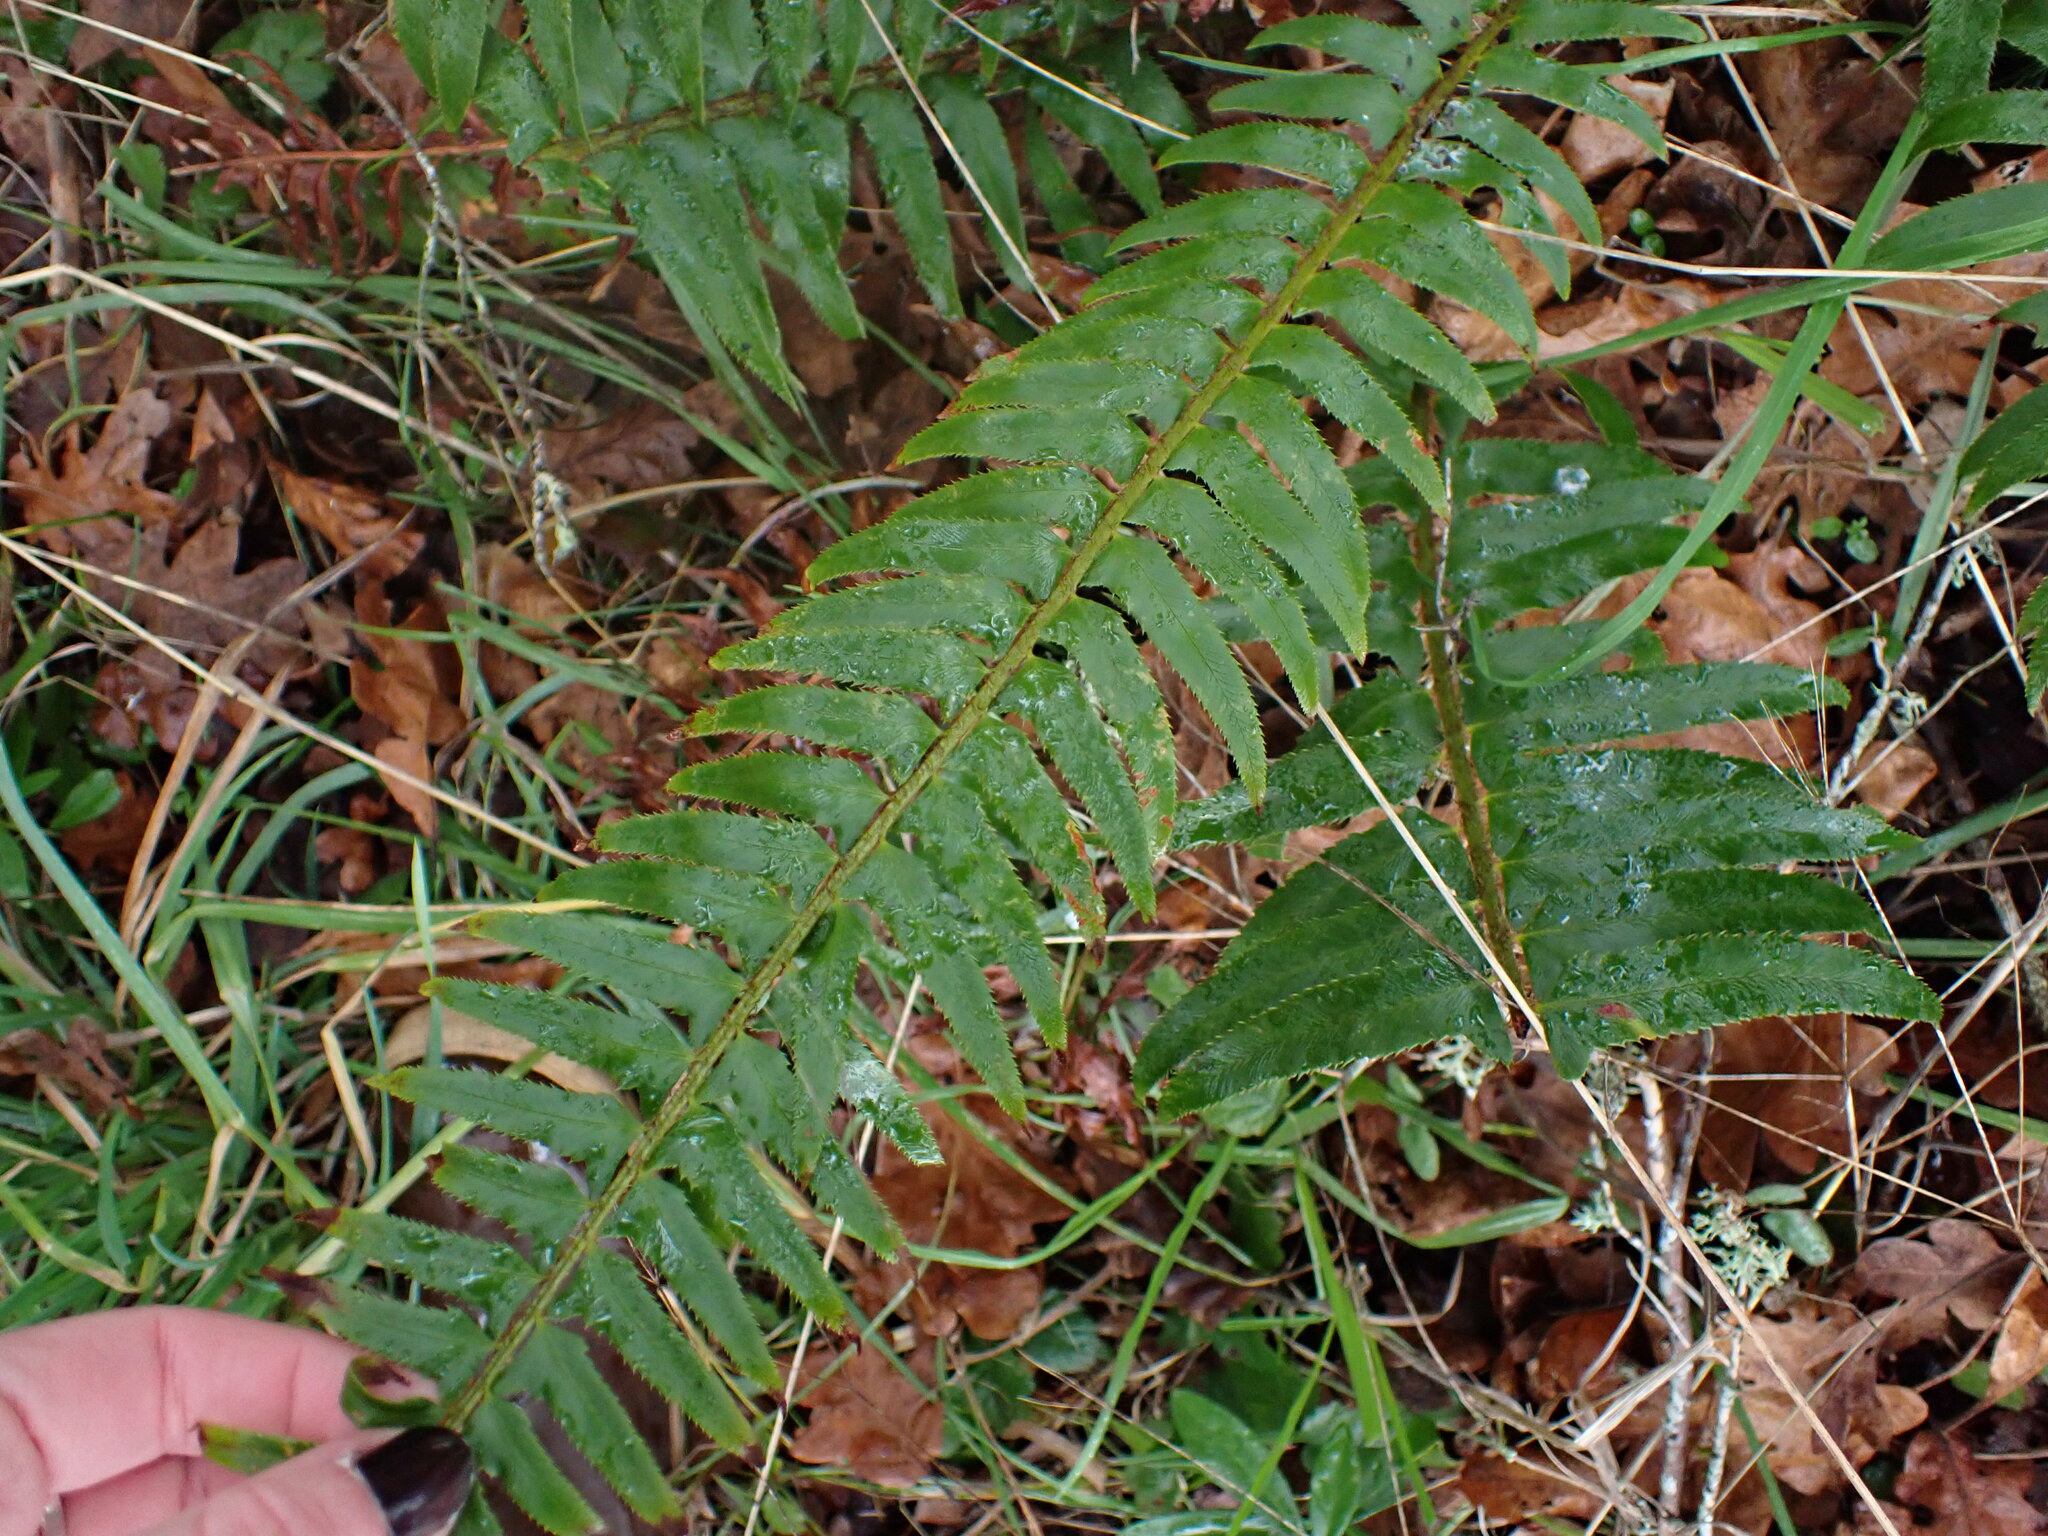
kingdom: Plantae
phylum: Tracheophyta
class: Polypodiopsida
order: Polypodiales
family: Dryopteridaceae
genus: Polystichum
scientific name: Polystichum munitum
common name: Western sword-fern
